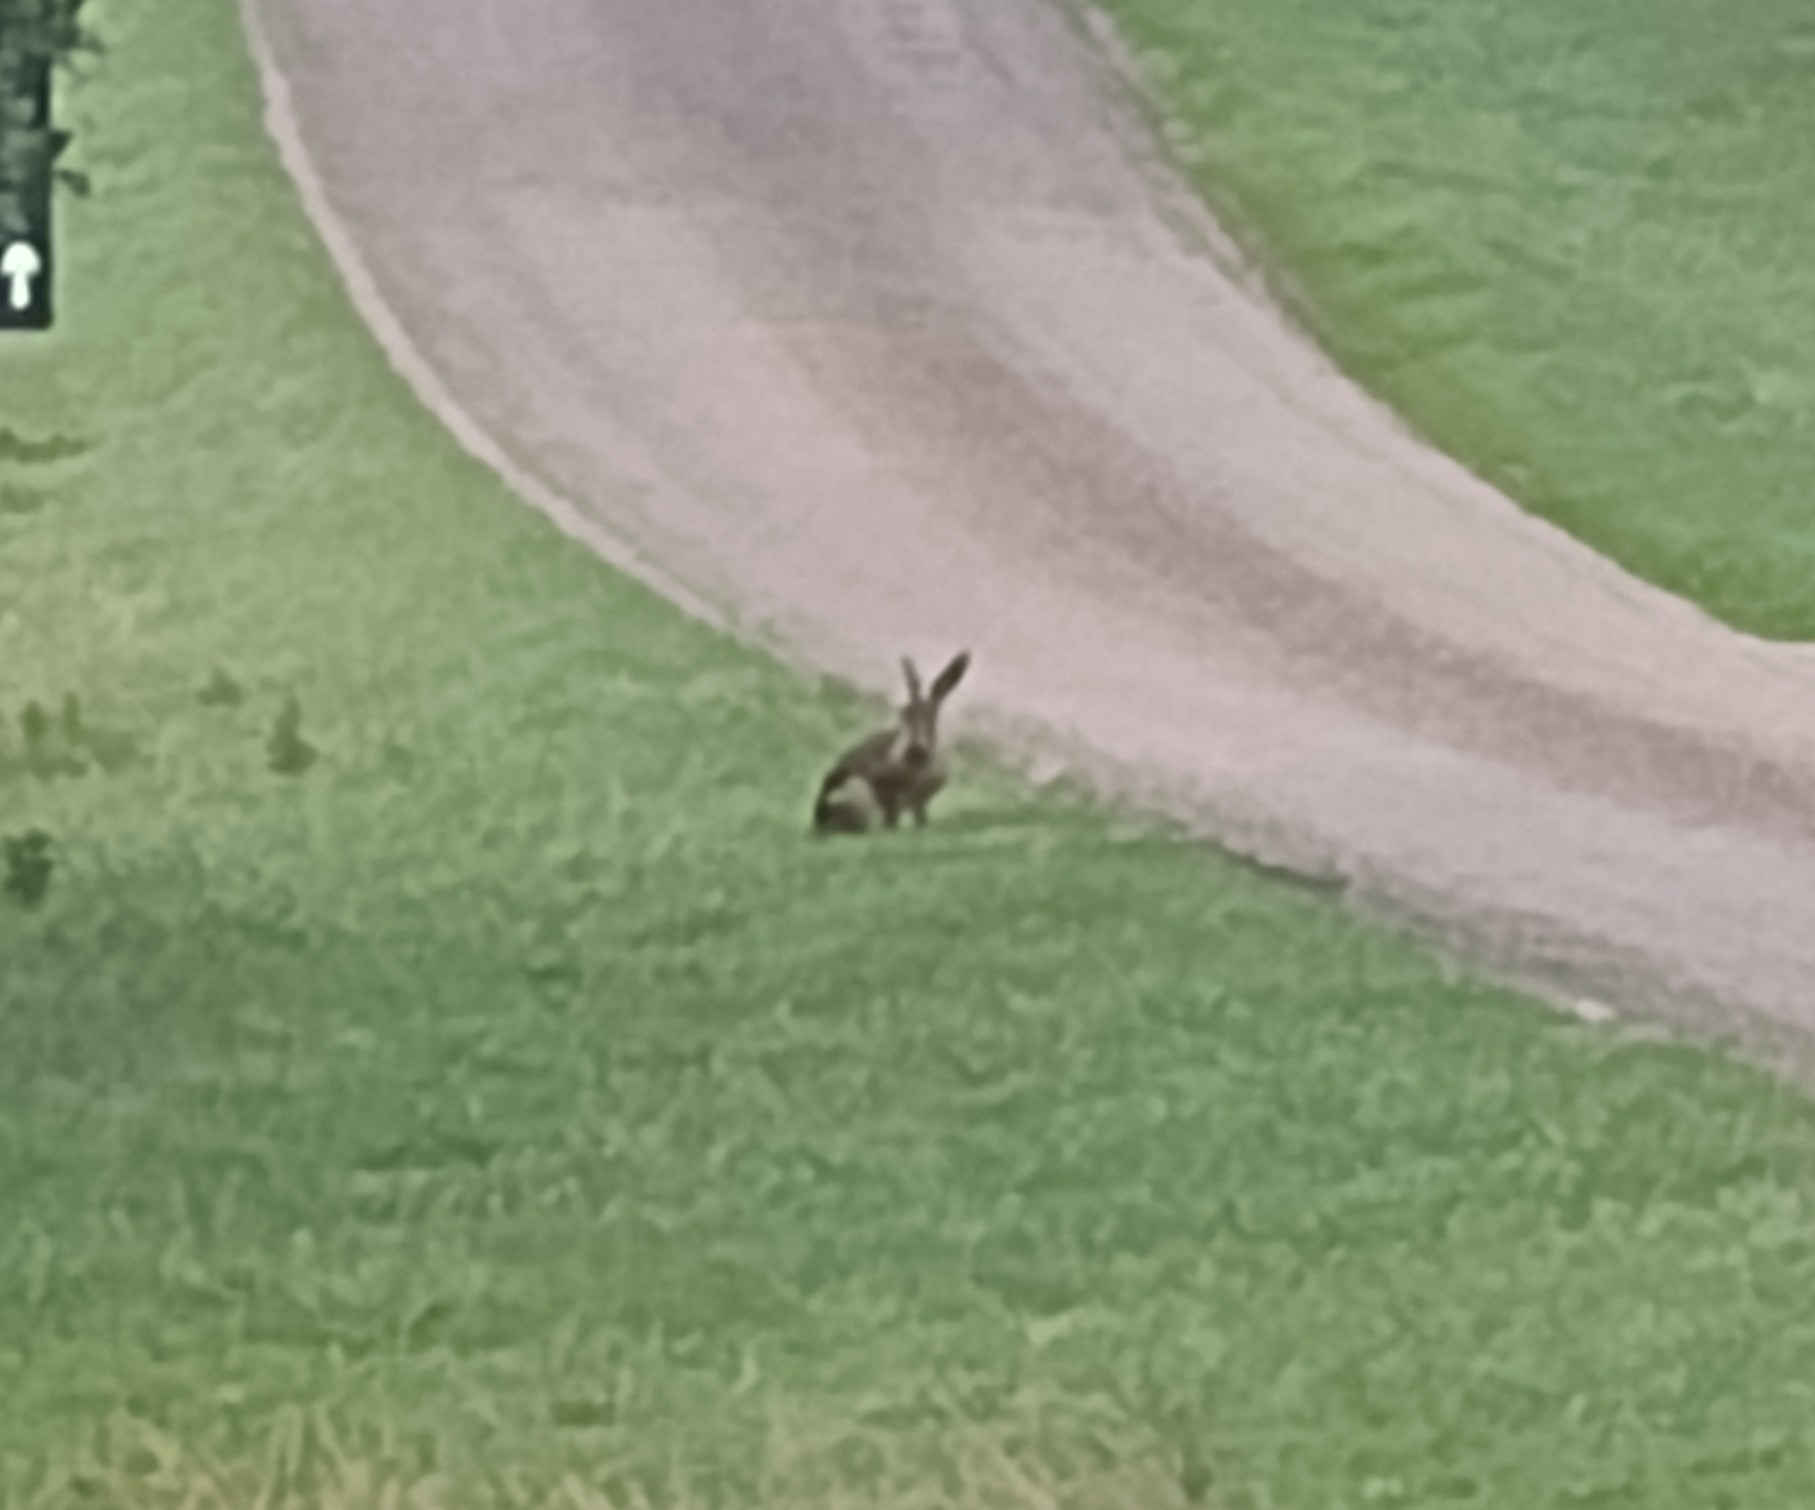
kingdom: Animalia
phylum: Chordata
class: Mammalia
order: Lagomorpha
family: Leporidae
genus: Lepus
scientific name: Lepus europaeus
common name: European hare
